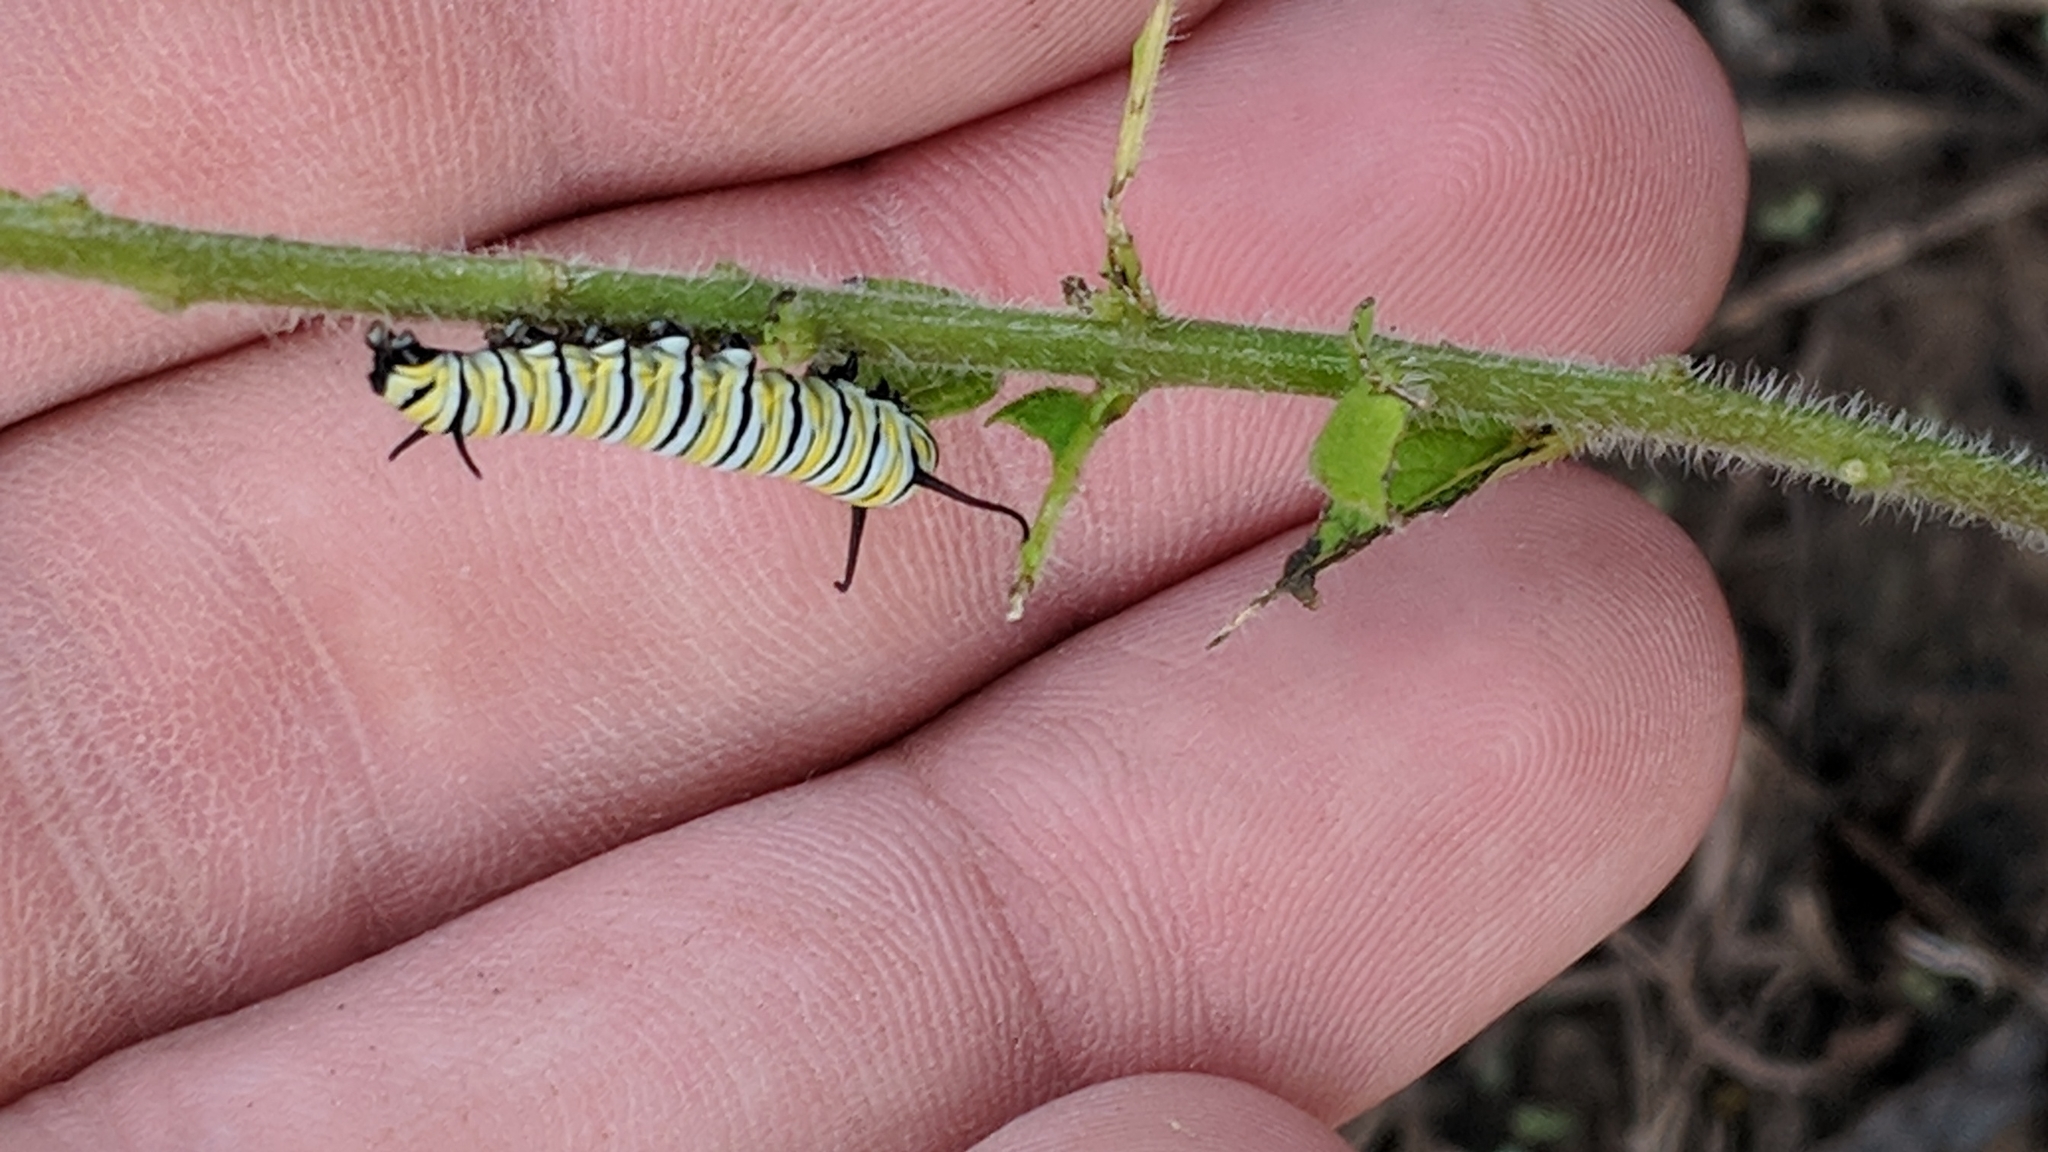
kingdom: Animalia
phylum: Arthropoda
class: Insecta
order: Lepidoptera
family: Nymphalidae
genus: Danaus
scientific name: Danaus plexippus
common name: Monarch
